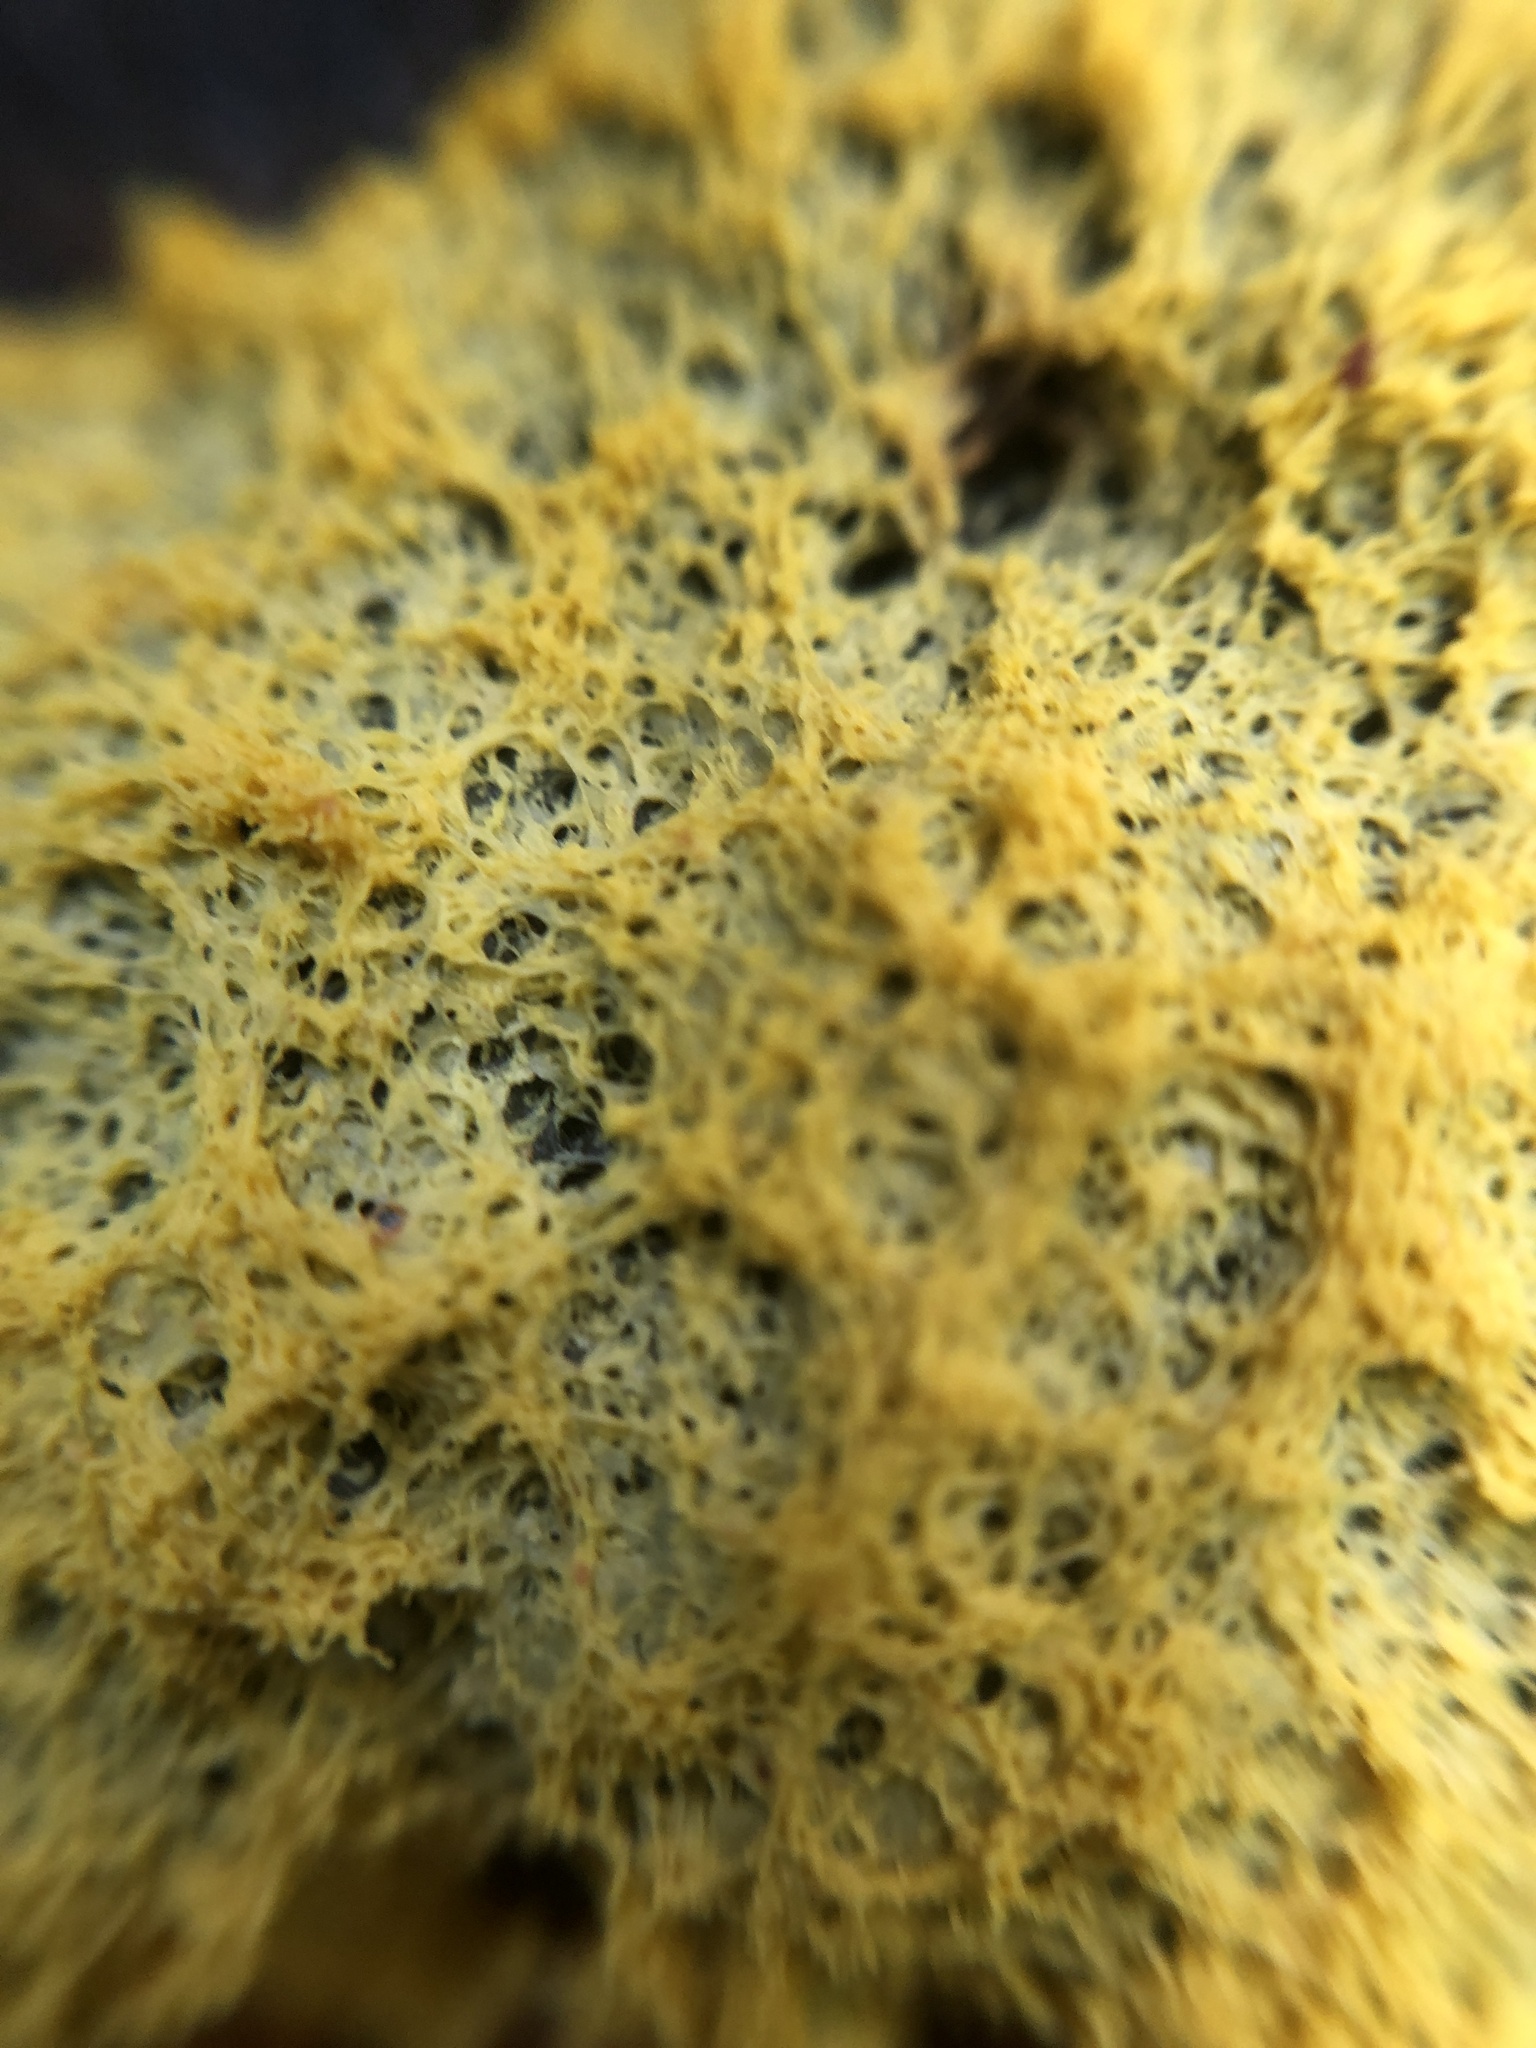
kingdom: Protozoa
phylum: Mycetozoa
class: Myxomycetes
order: Physarales
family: Physaraceae
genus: Fuligo
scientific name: Fuligo septica
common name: Dog vomit slime mold
